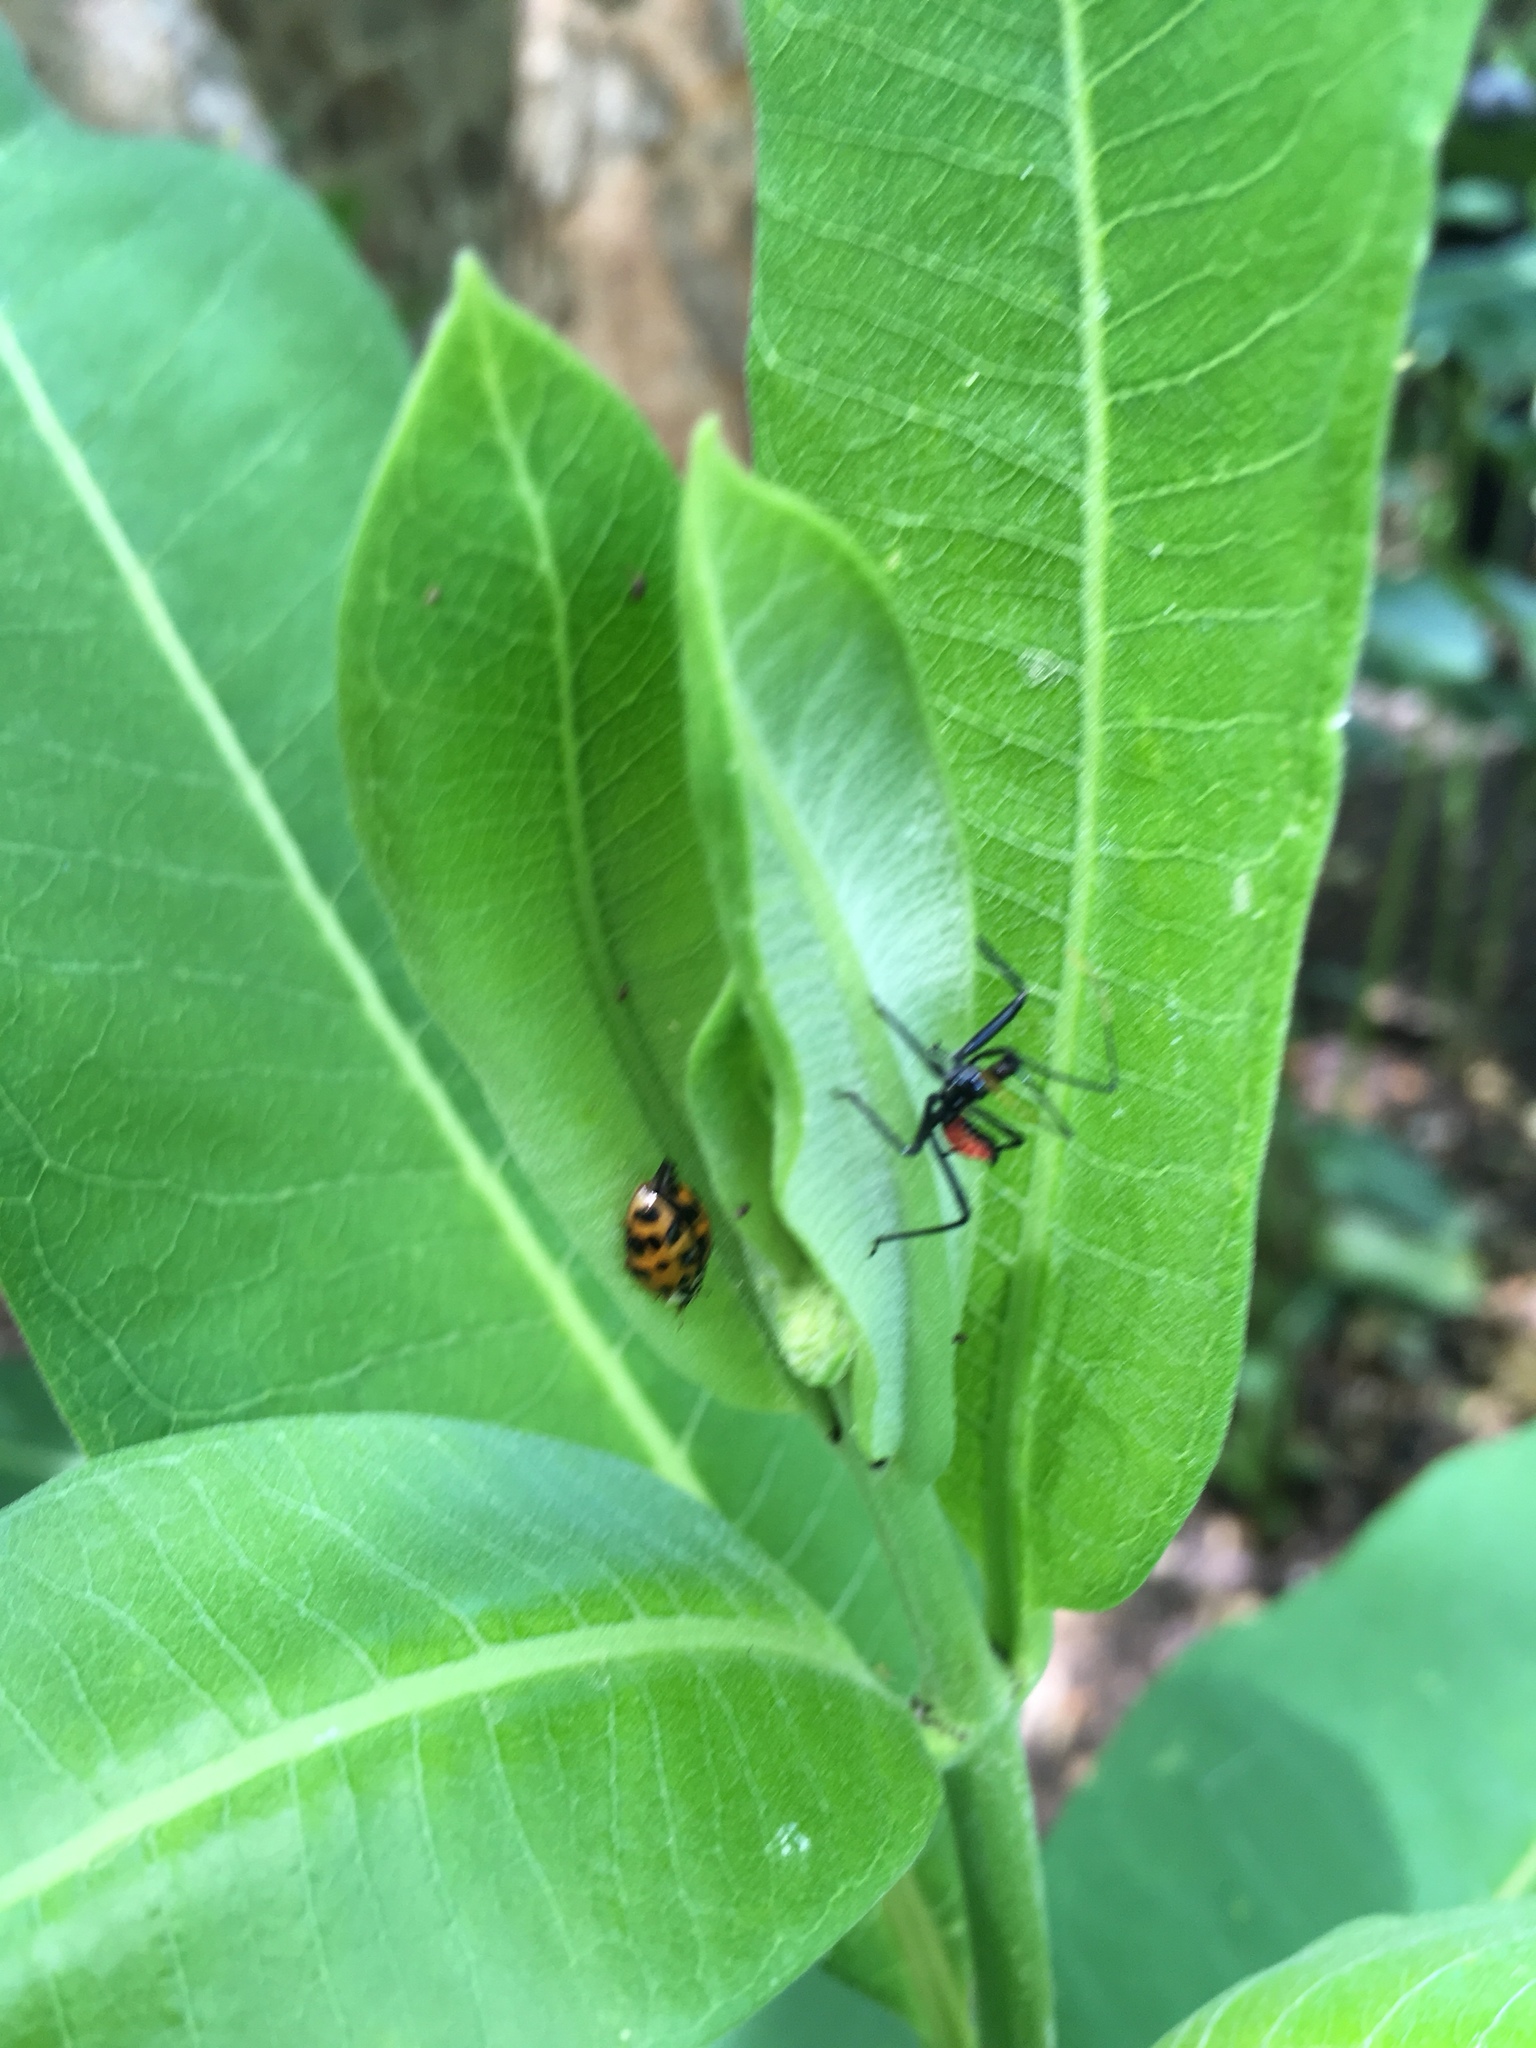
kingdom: Animalia
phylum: Arthropoda
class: Insecta
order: Hemiptera
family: Reduviidae
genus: Arilus
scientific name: Arilus cristatus
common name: North american wheel bug
